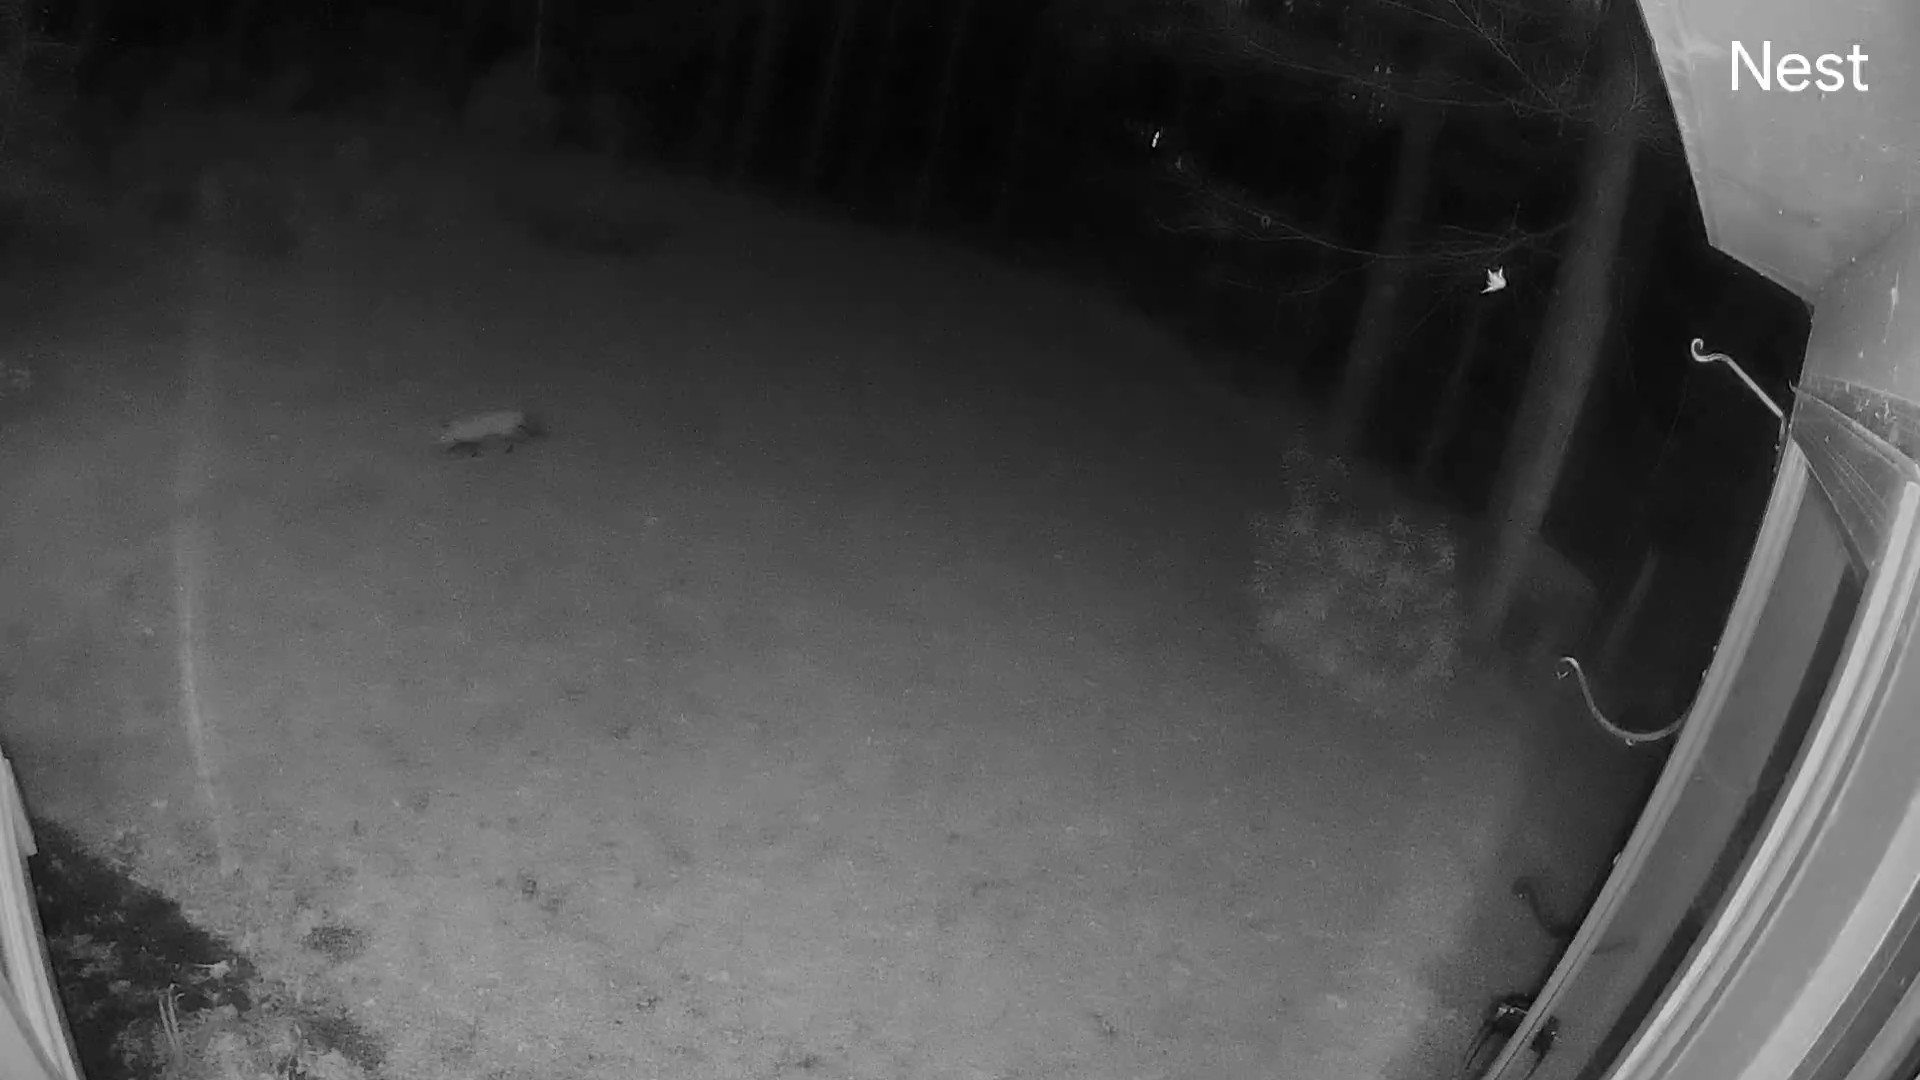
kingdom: Animalia
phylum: Chordata
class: Mammalia
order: Carnivora
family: Canidae
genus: Vulpes
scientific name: Vulpes vulpes
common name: Red fox
